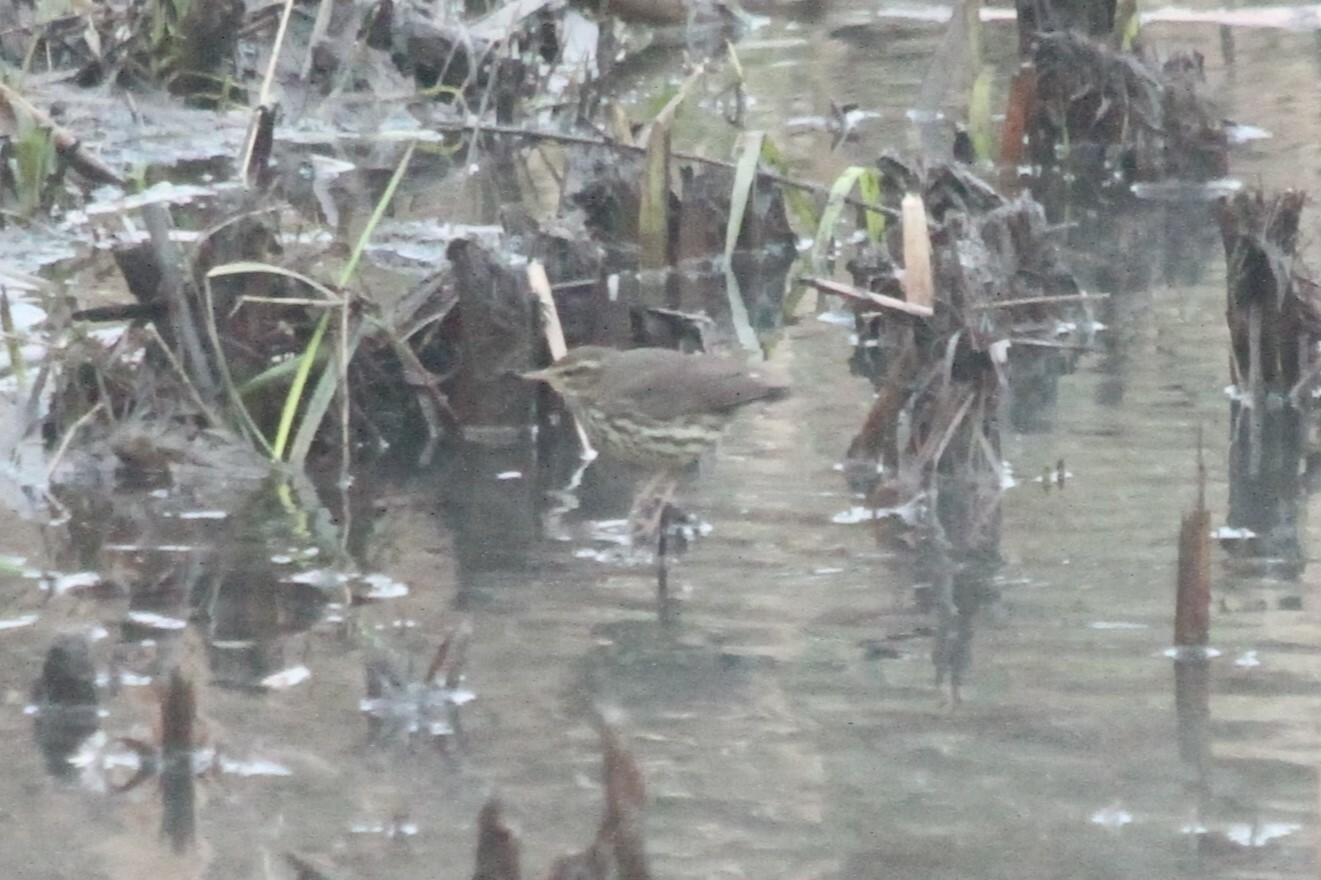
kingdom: Animalia
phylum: Chordata
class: Aves
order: Passeriformes
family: Parulidae
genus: Parkesia
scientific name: Parkesia noveboracensis
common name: Northern waterthrush
